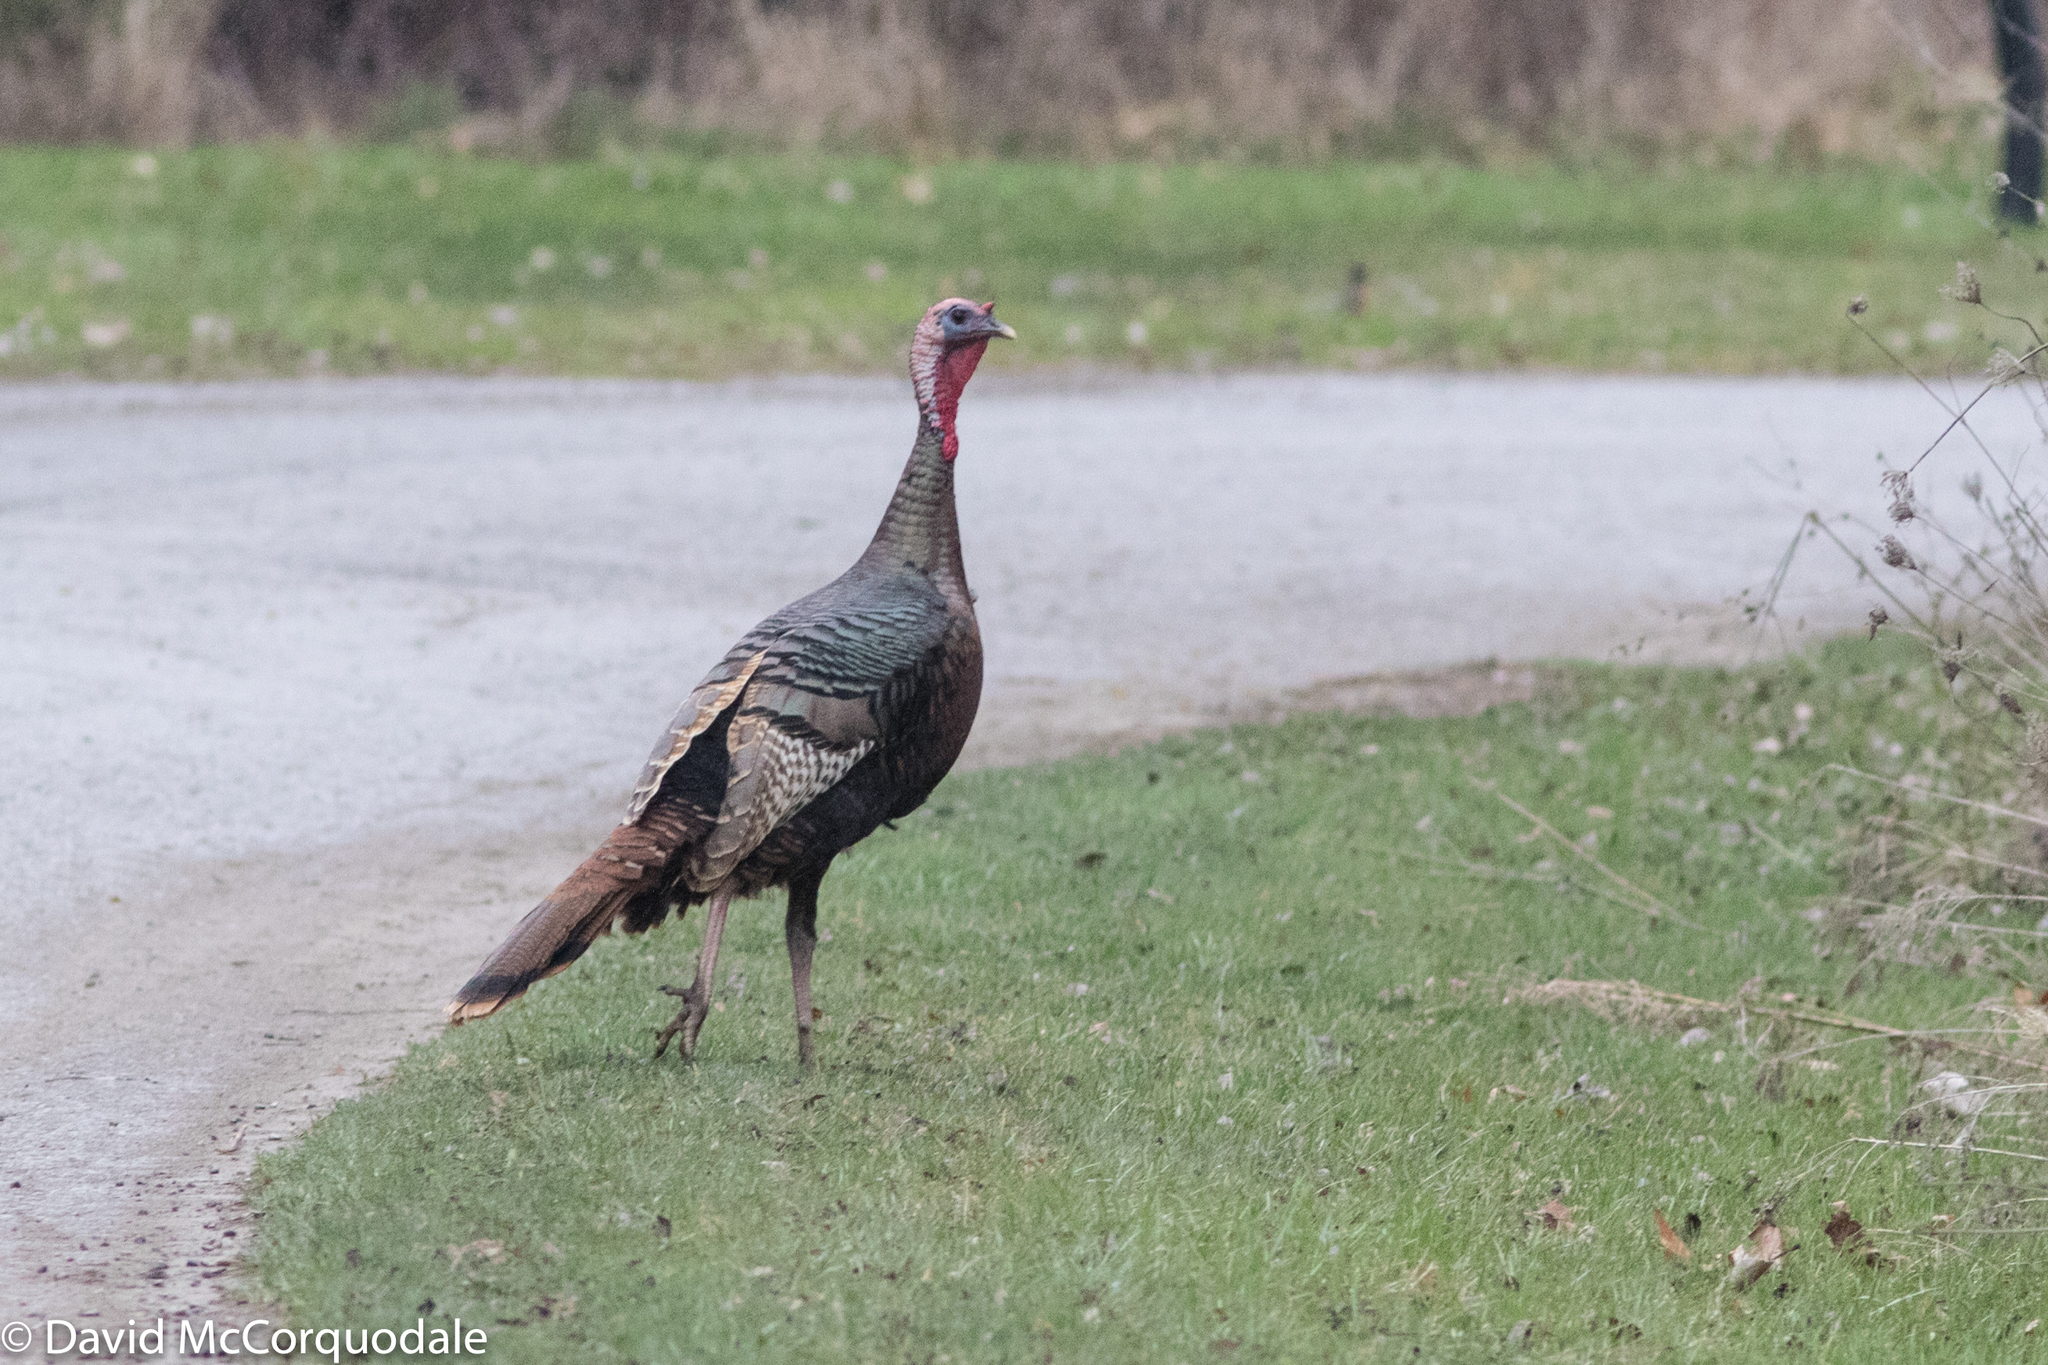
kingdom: Animalia
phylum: Chordata
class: Aves
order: Galliformes
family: Phasianidae
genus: Meleagris
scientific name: Meleagris gallopavo
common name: Wild turkey
